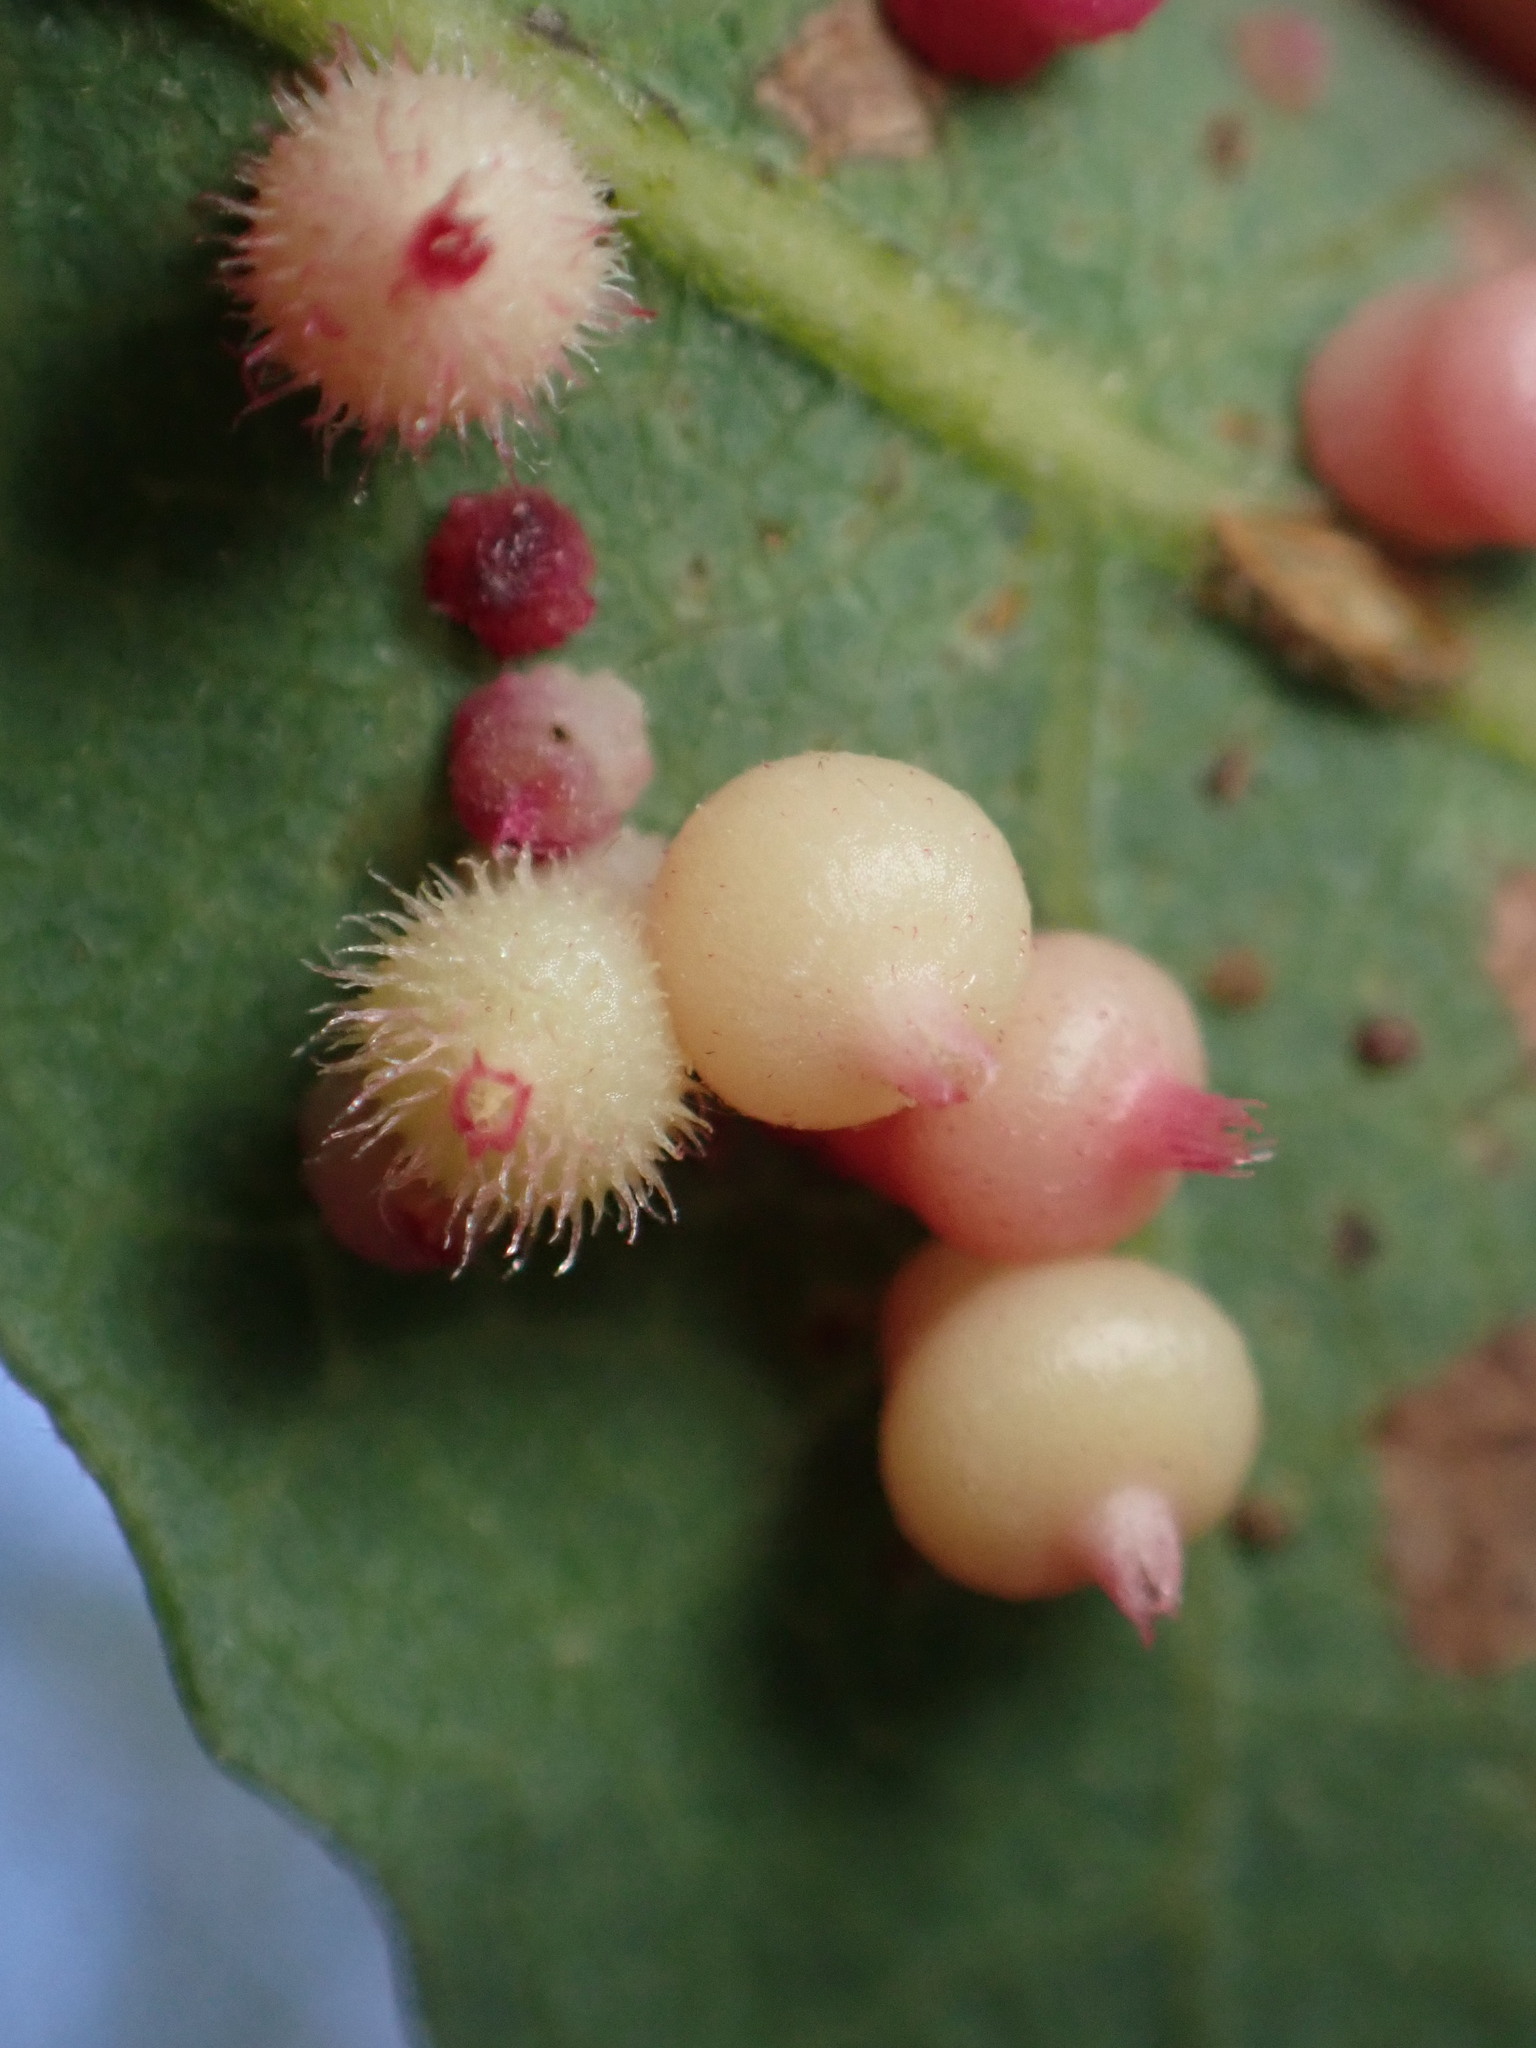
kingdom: Animalia
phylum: Arthropoda
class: Insecta
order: Hymenoptera
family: Cynipidae
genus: Andricus
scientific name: Andricus
